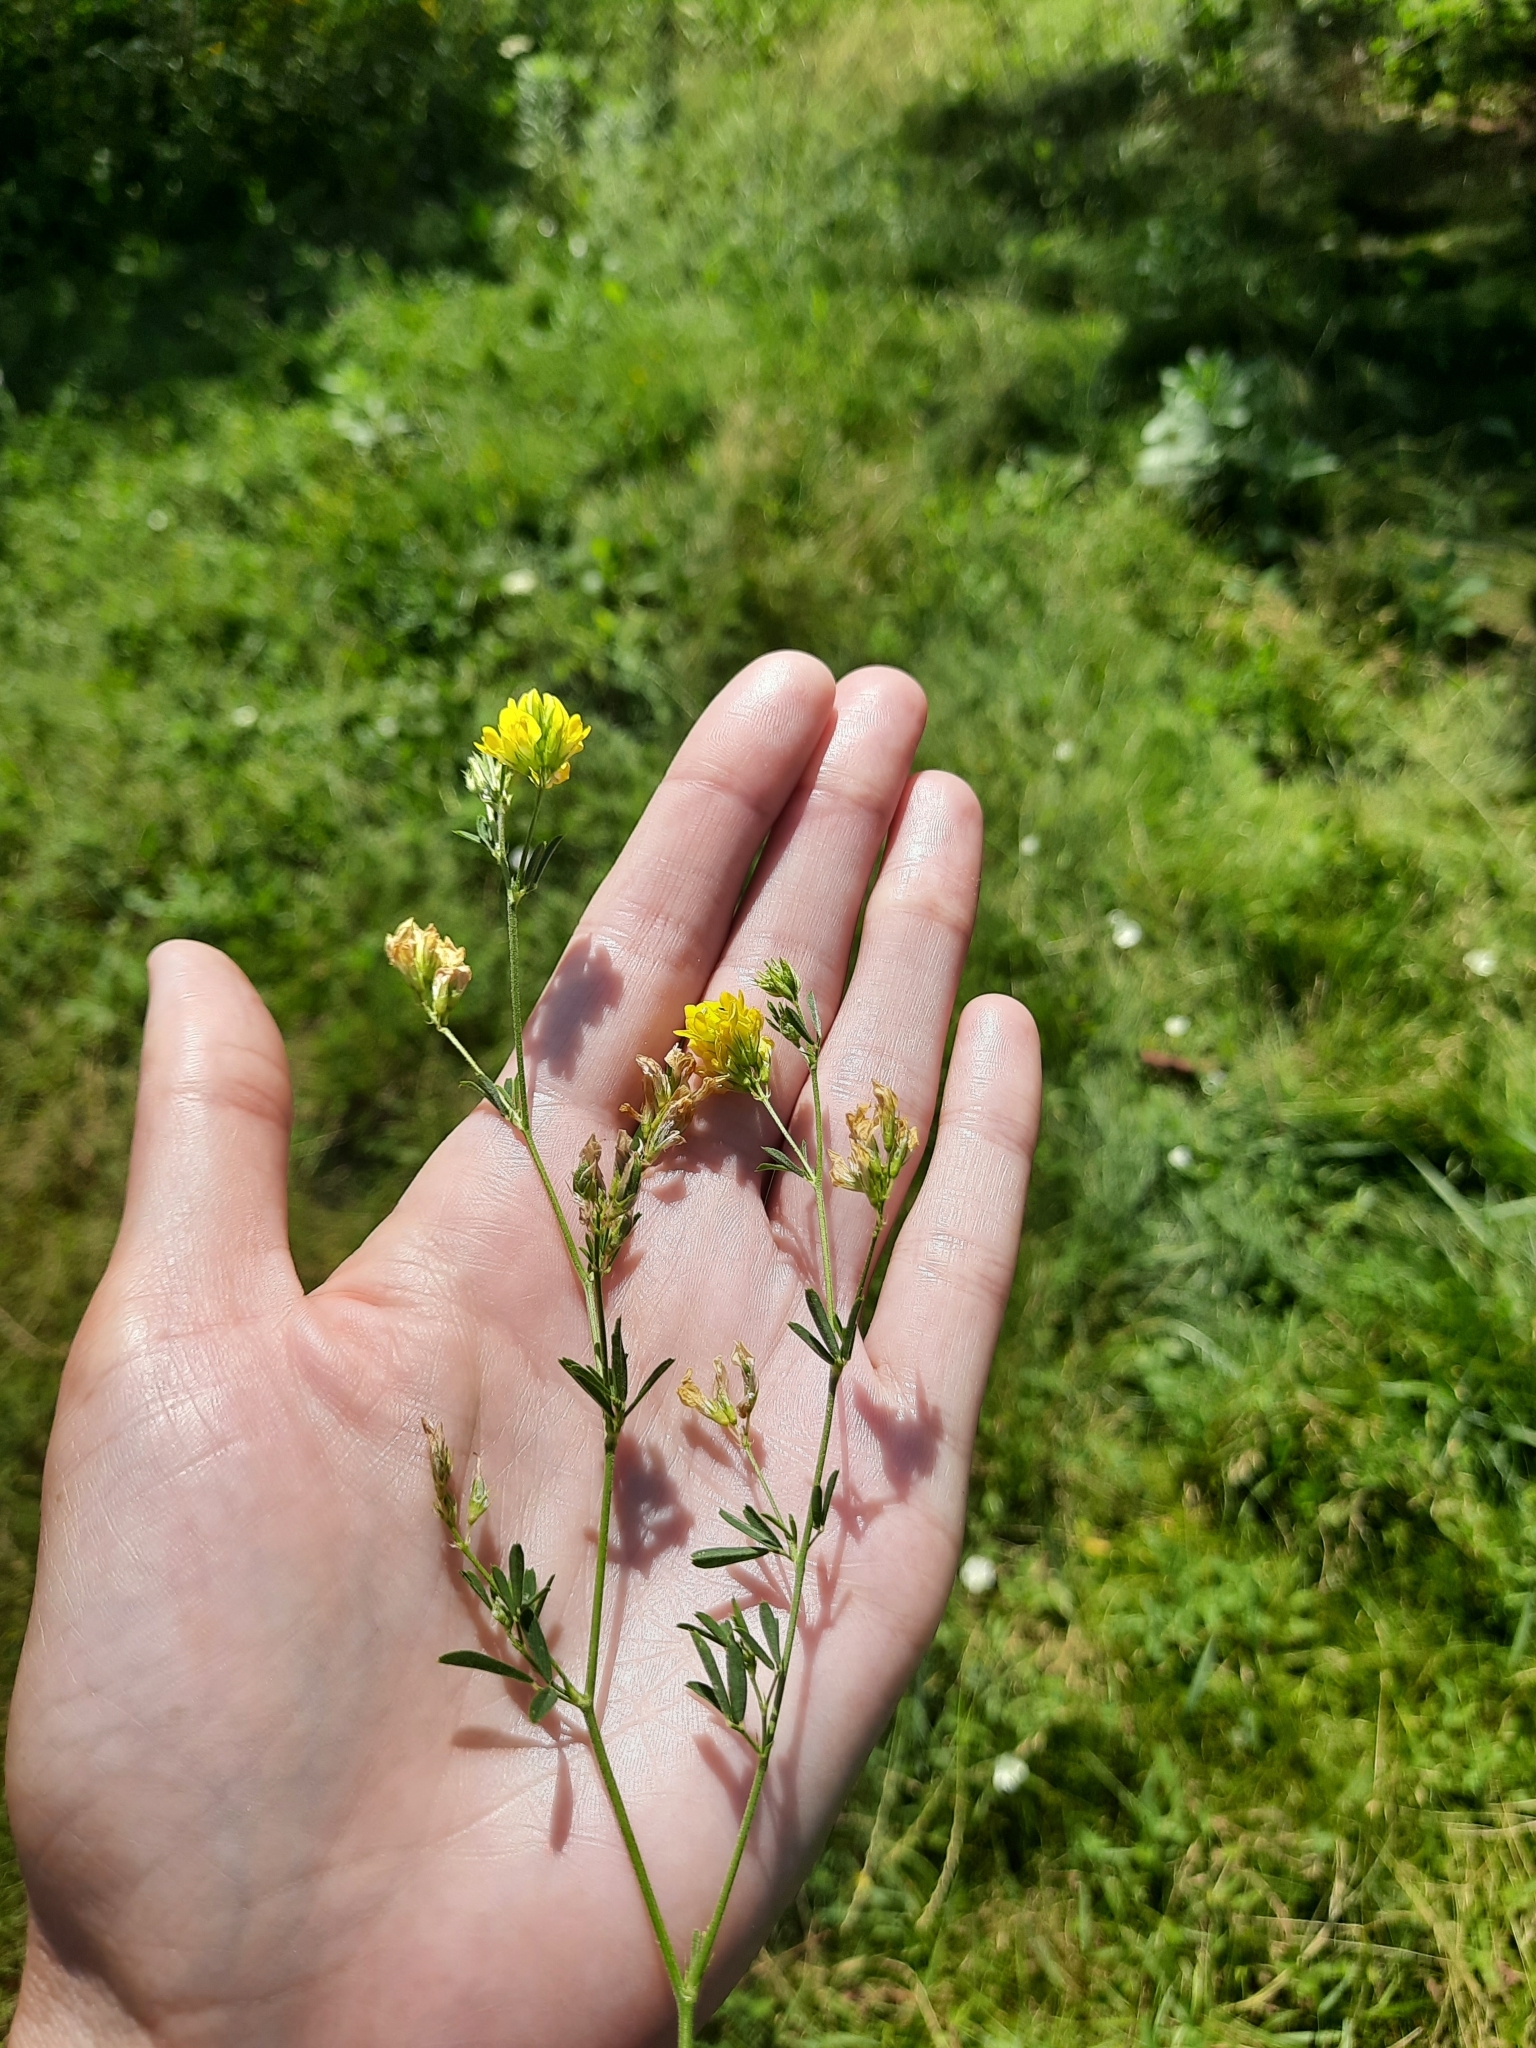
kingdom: Plantae
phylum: Tracheophyta
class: Magnoliopsida
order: Fabales
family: Fabaceae
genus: Medicago
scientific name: Medicago falcata
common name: Sickle medick
